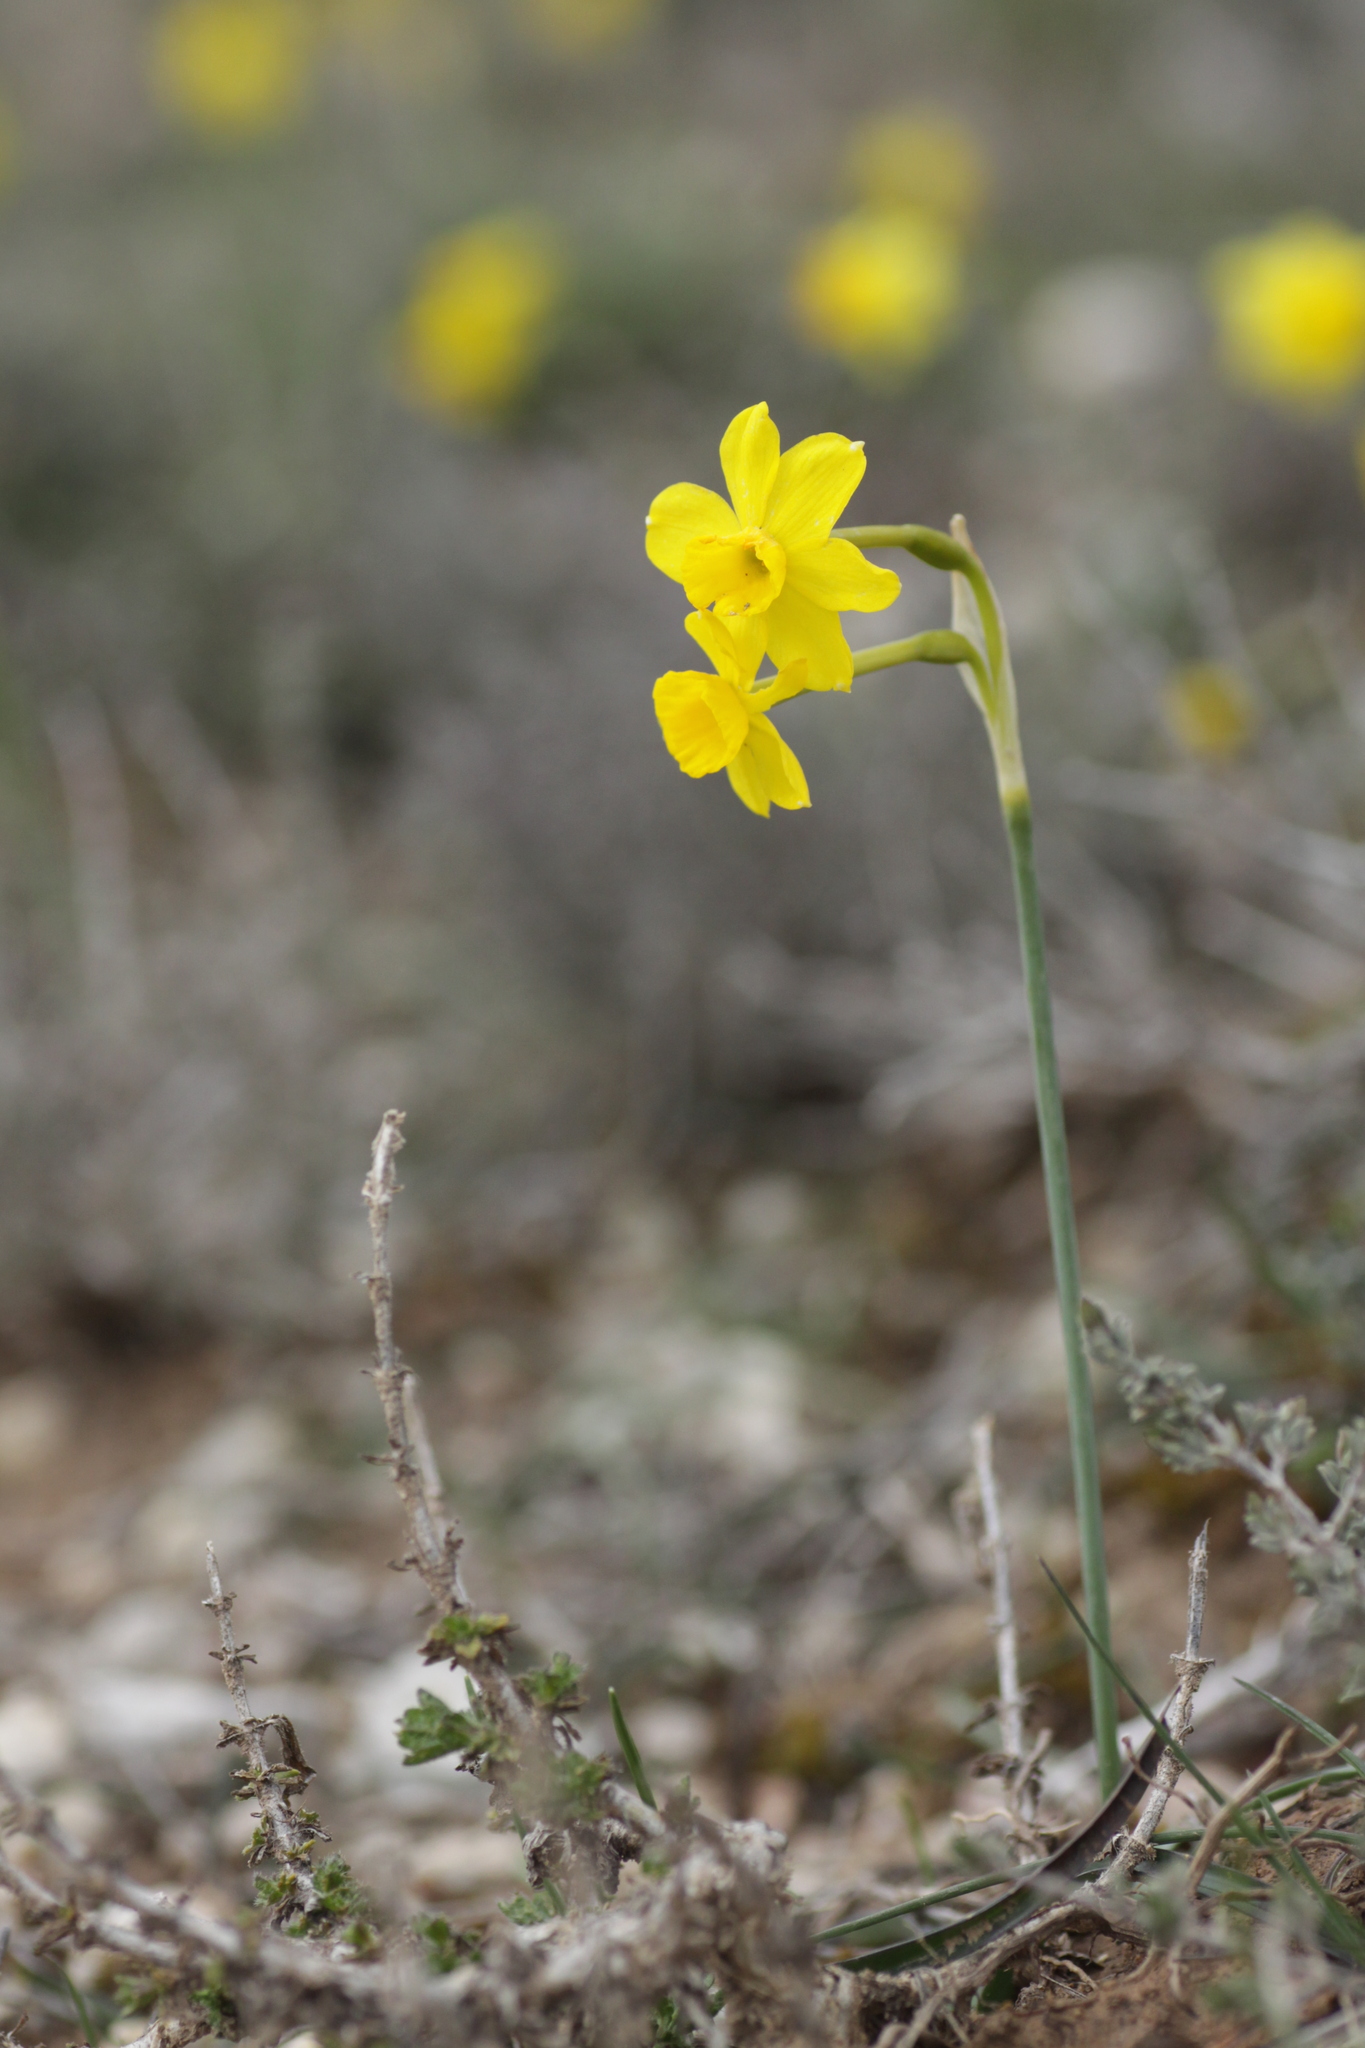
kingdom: Plantae
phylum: Tracheophyta
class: Liliopsida
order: Asparagales
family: Amaryllidaceae
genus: Narcissus
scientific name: Narcissus assoanus
